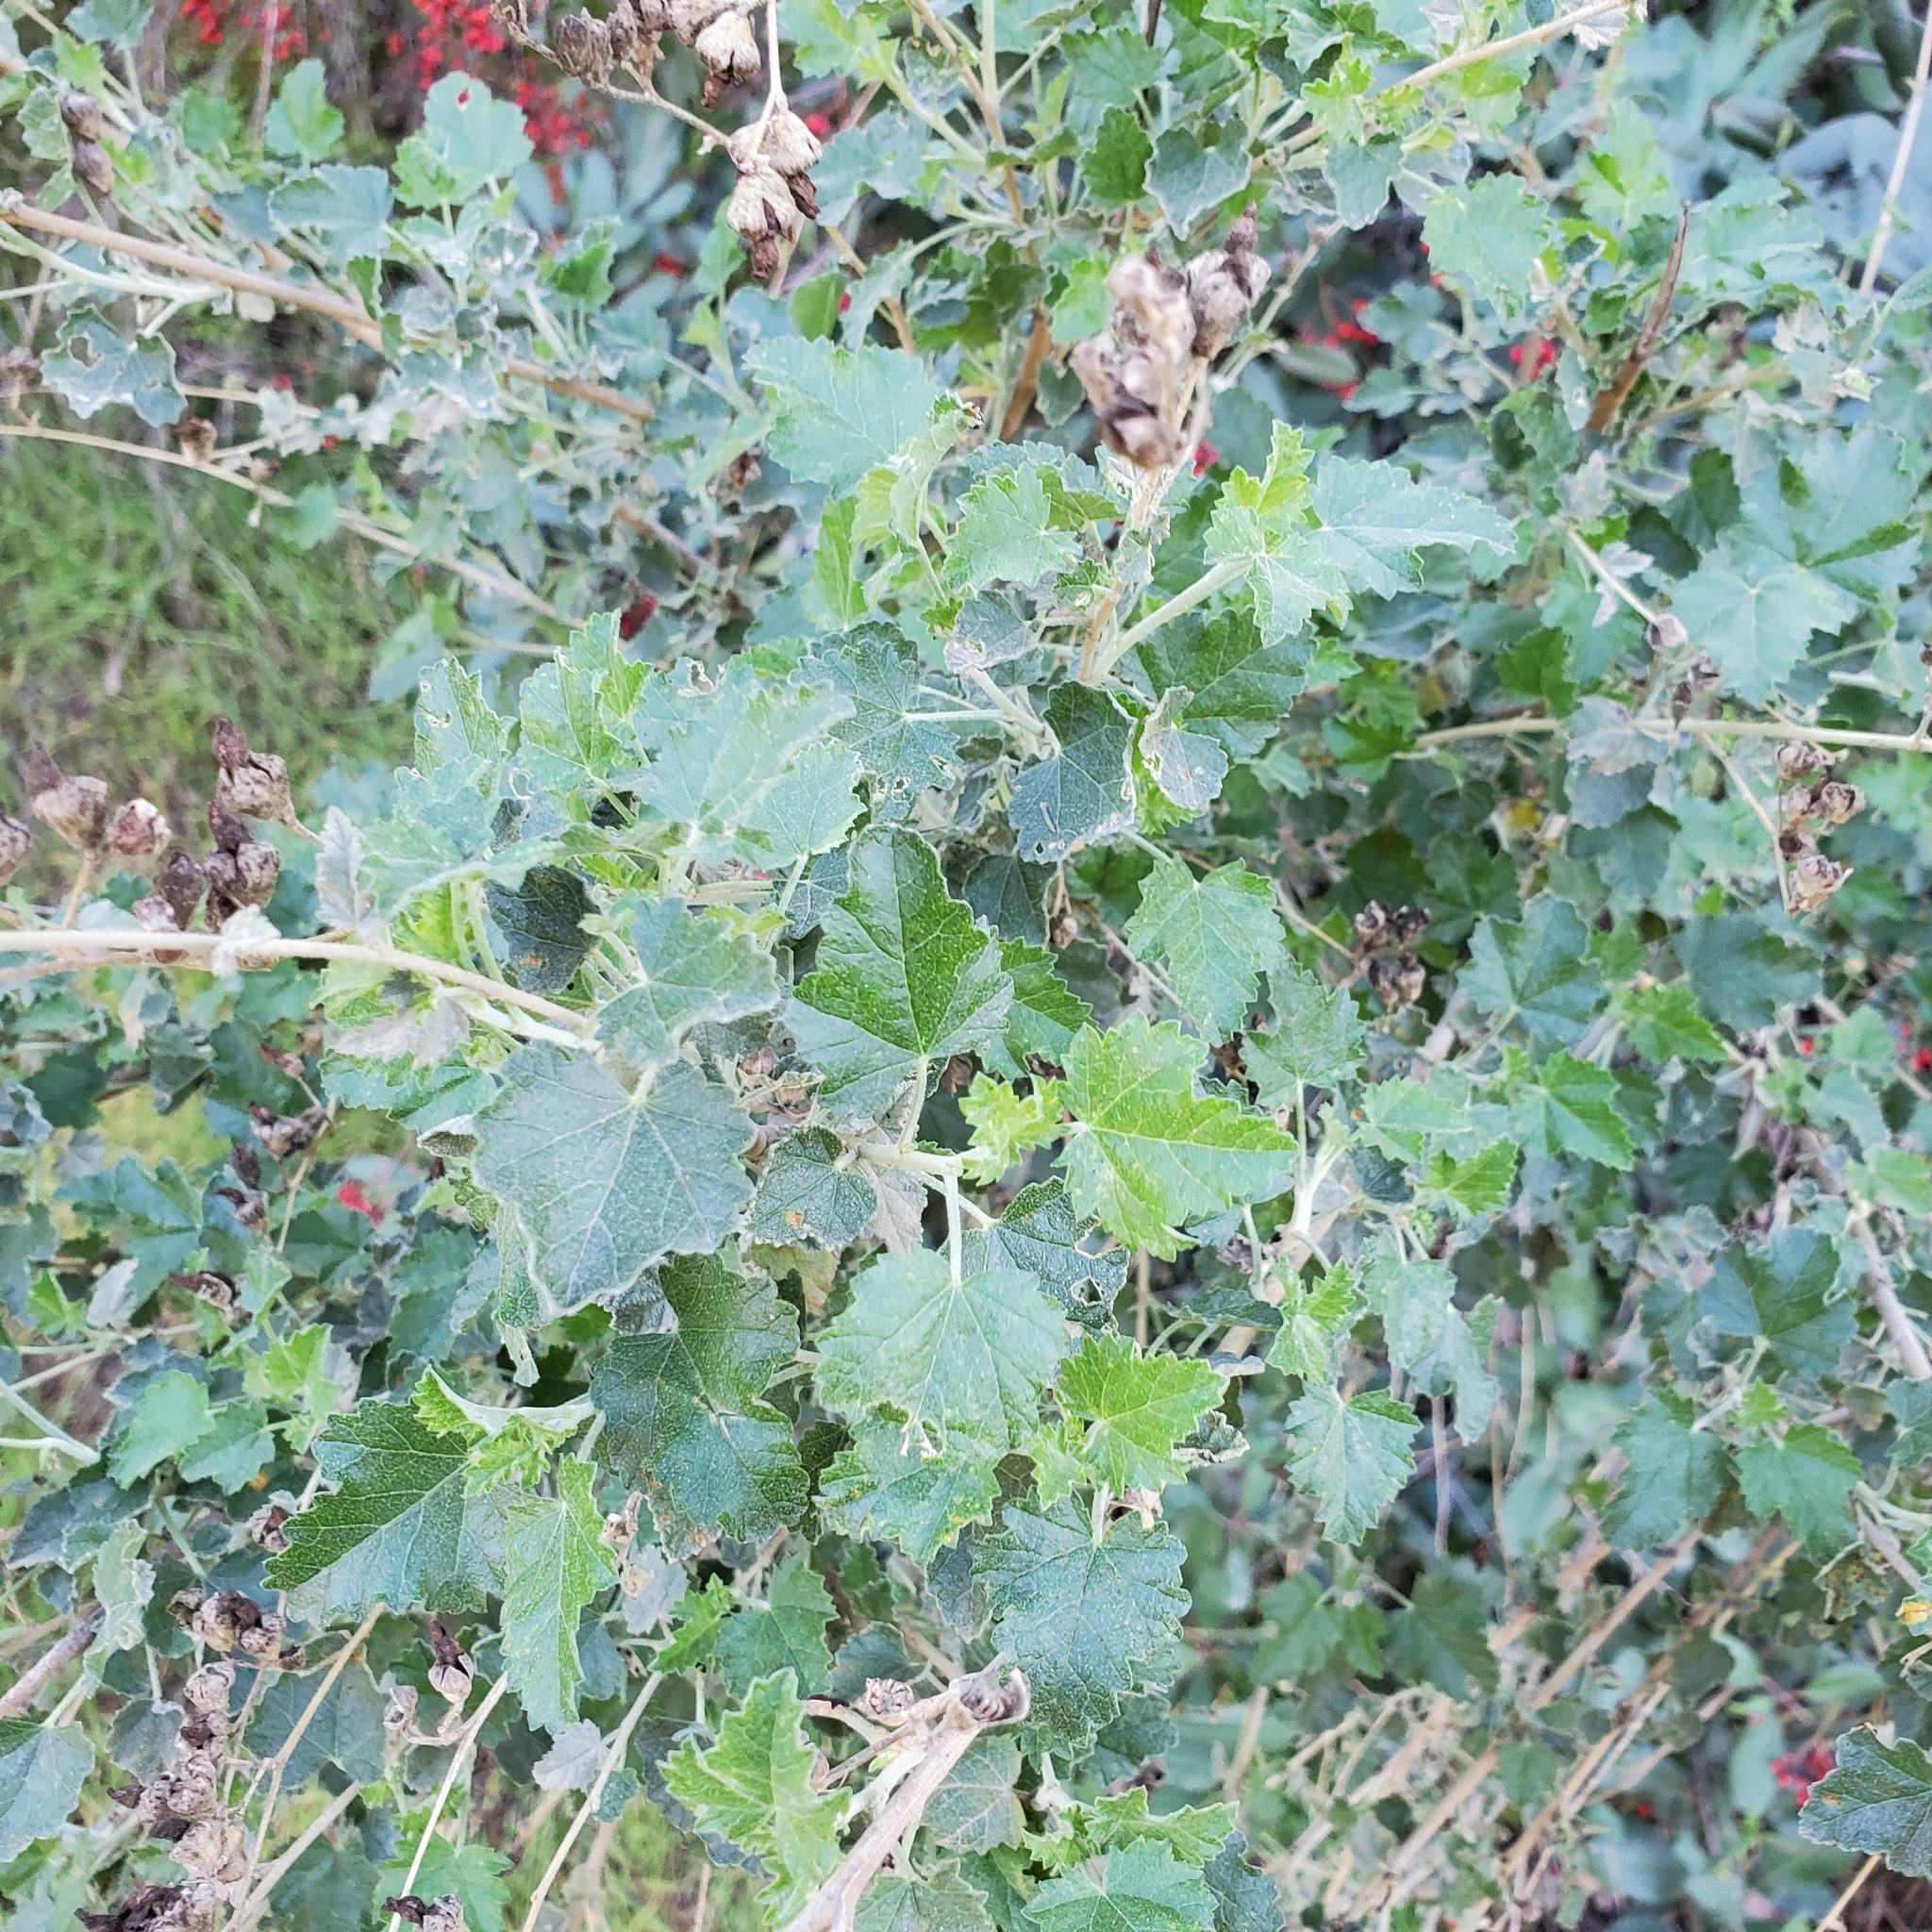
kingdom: Plantae
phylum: Tracheophyta
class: Magnoliopsida
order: Malvales
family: Malvaceae
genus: Malacothamnus
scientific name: Malacothamnus fasciculatus
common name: Sant cruz island bush-mallow
